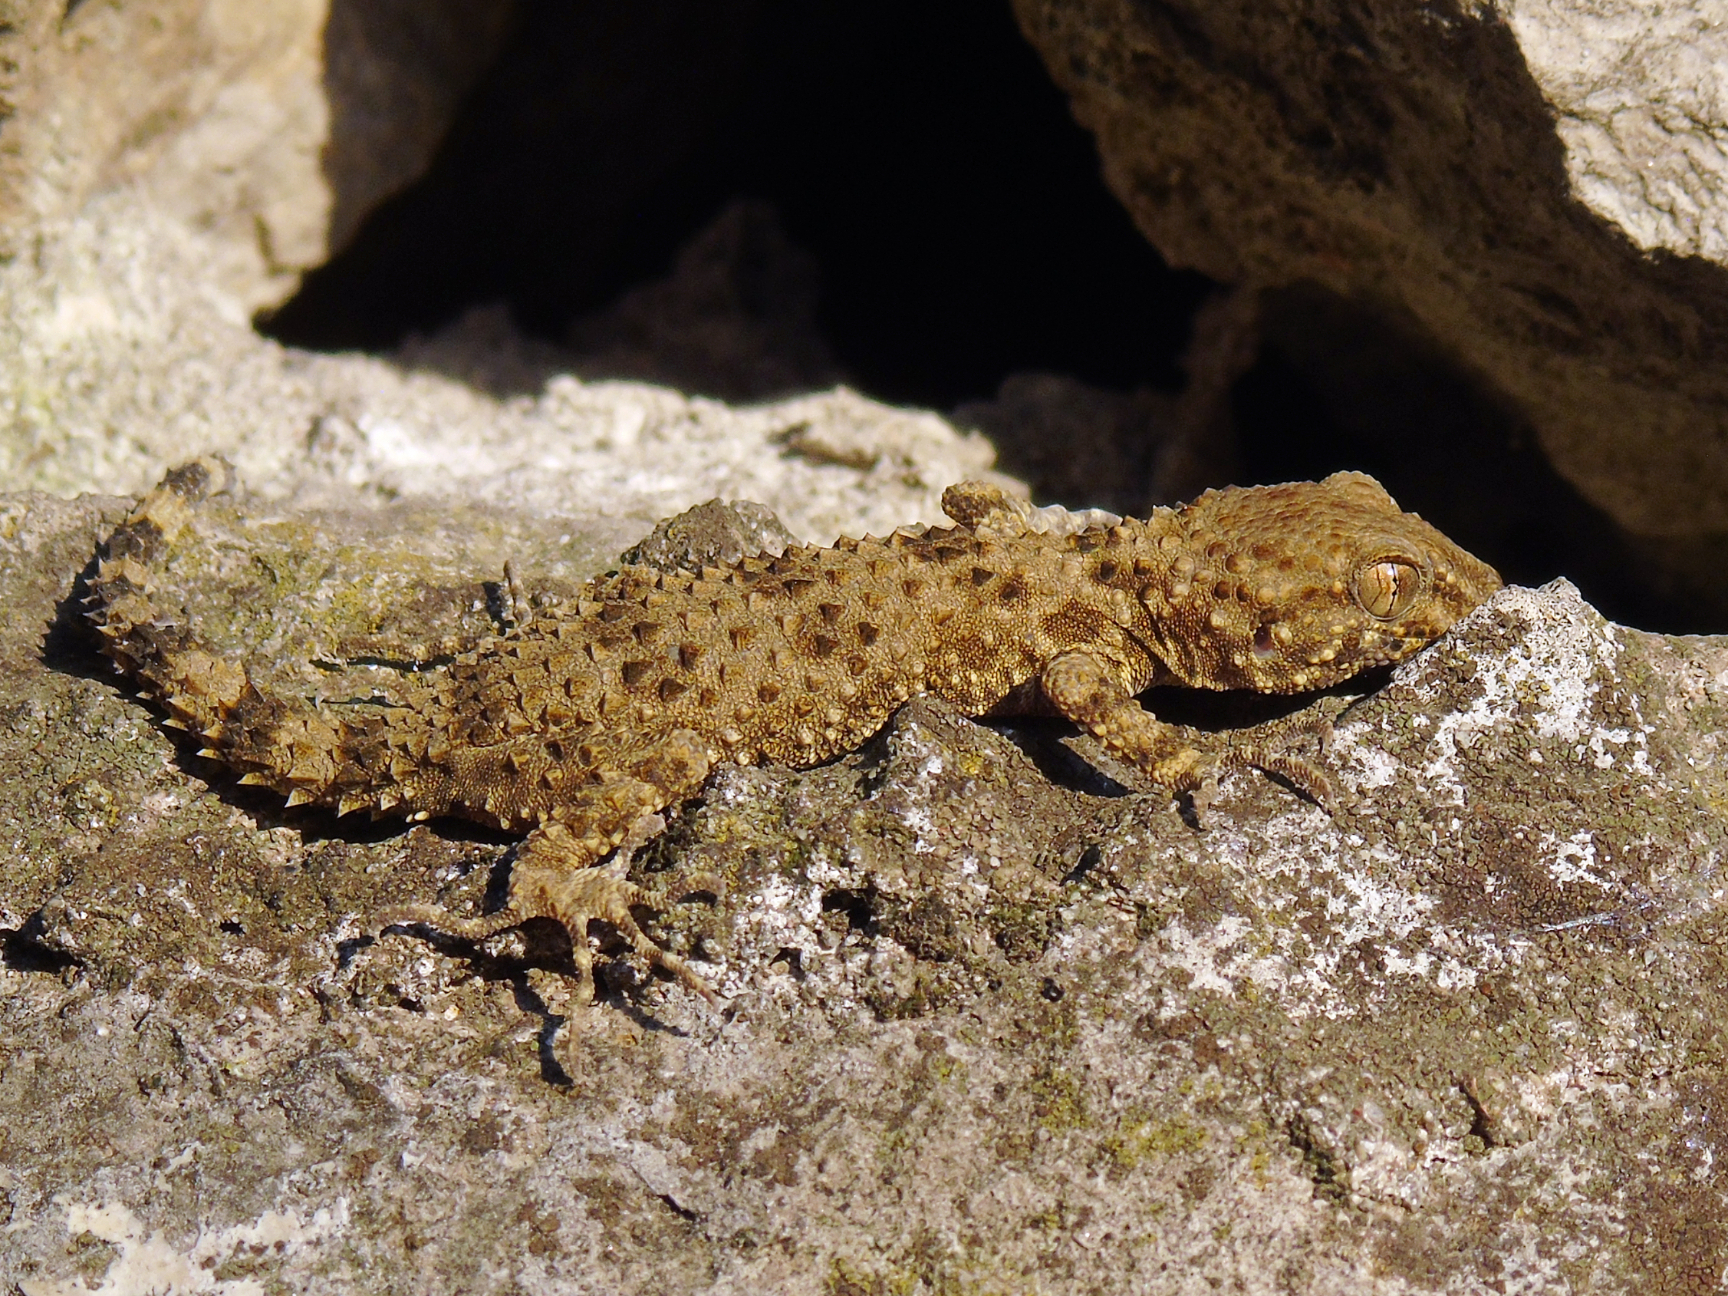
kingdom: Animalia
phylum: Chordata
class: Squamata
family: Gekkonidae
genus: Tenuidactylus
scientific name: Tenuidactylus caspius
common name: Caspian bent-toed gecko
